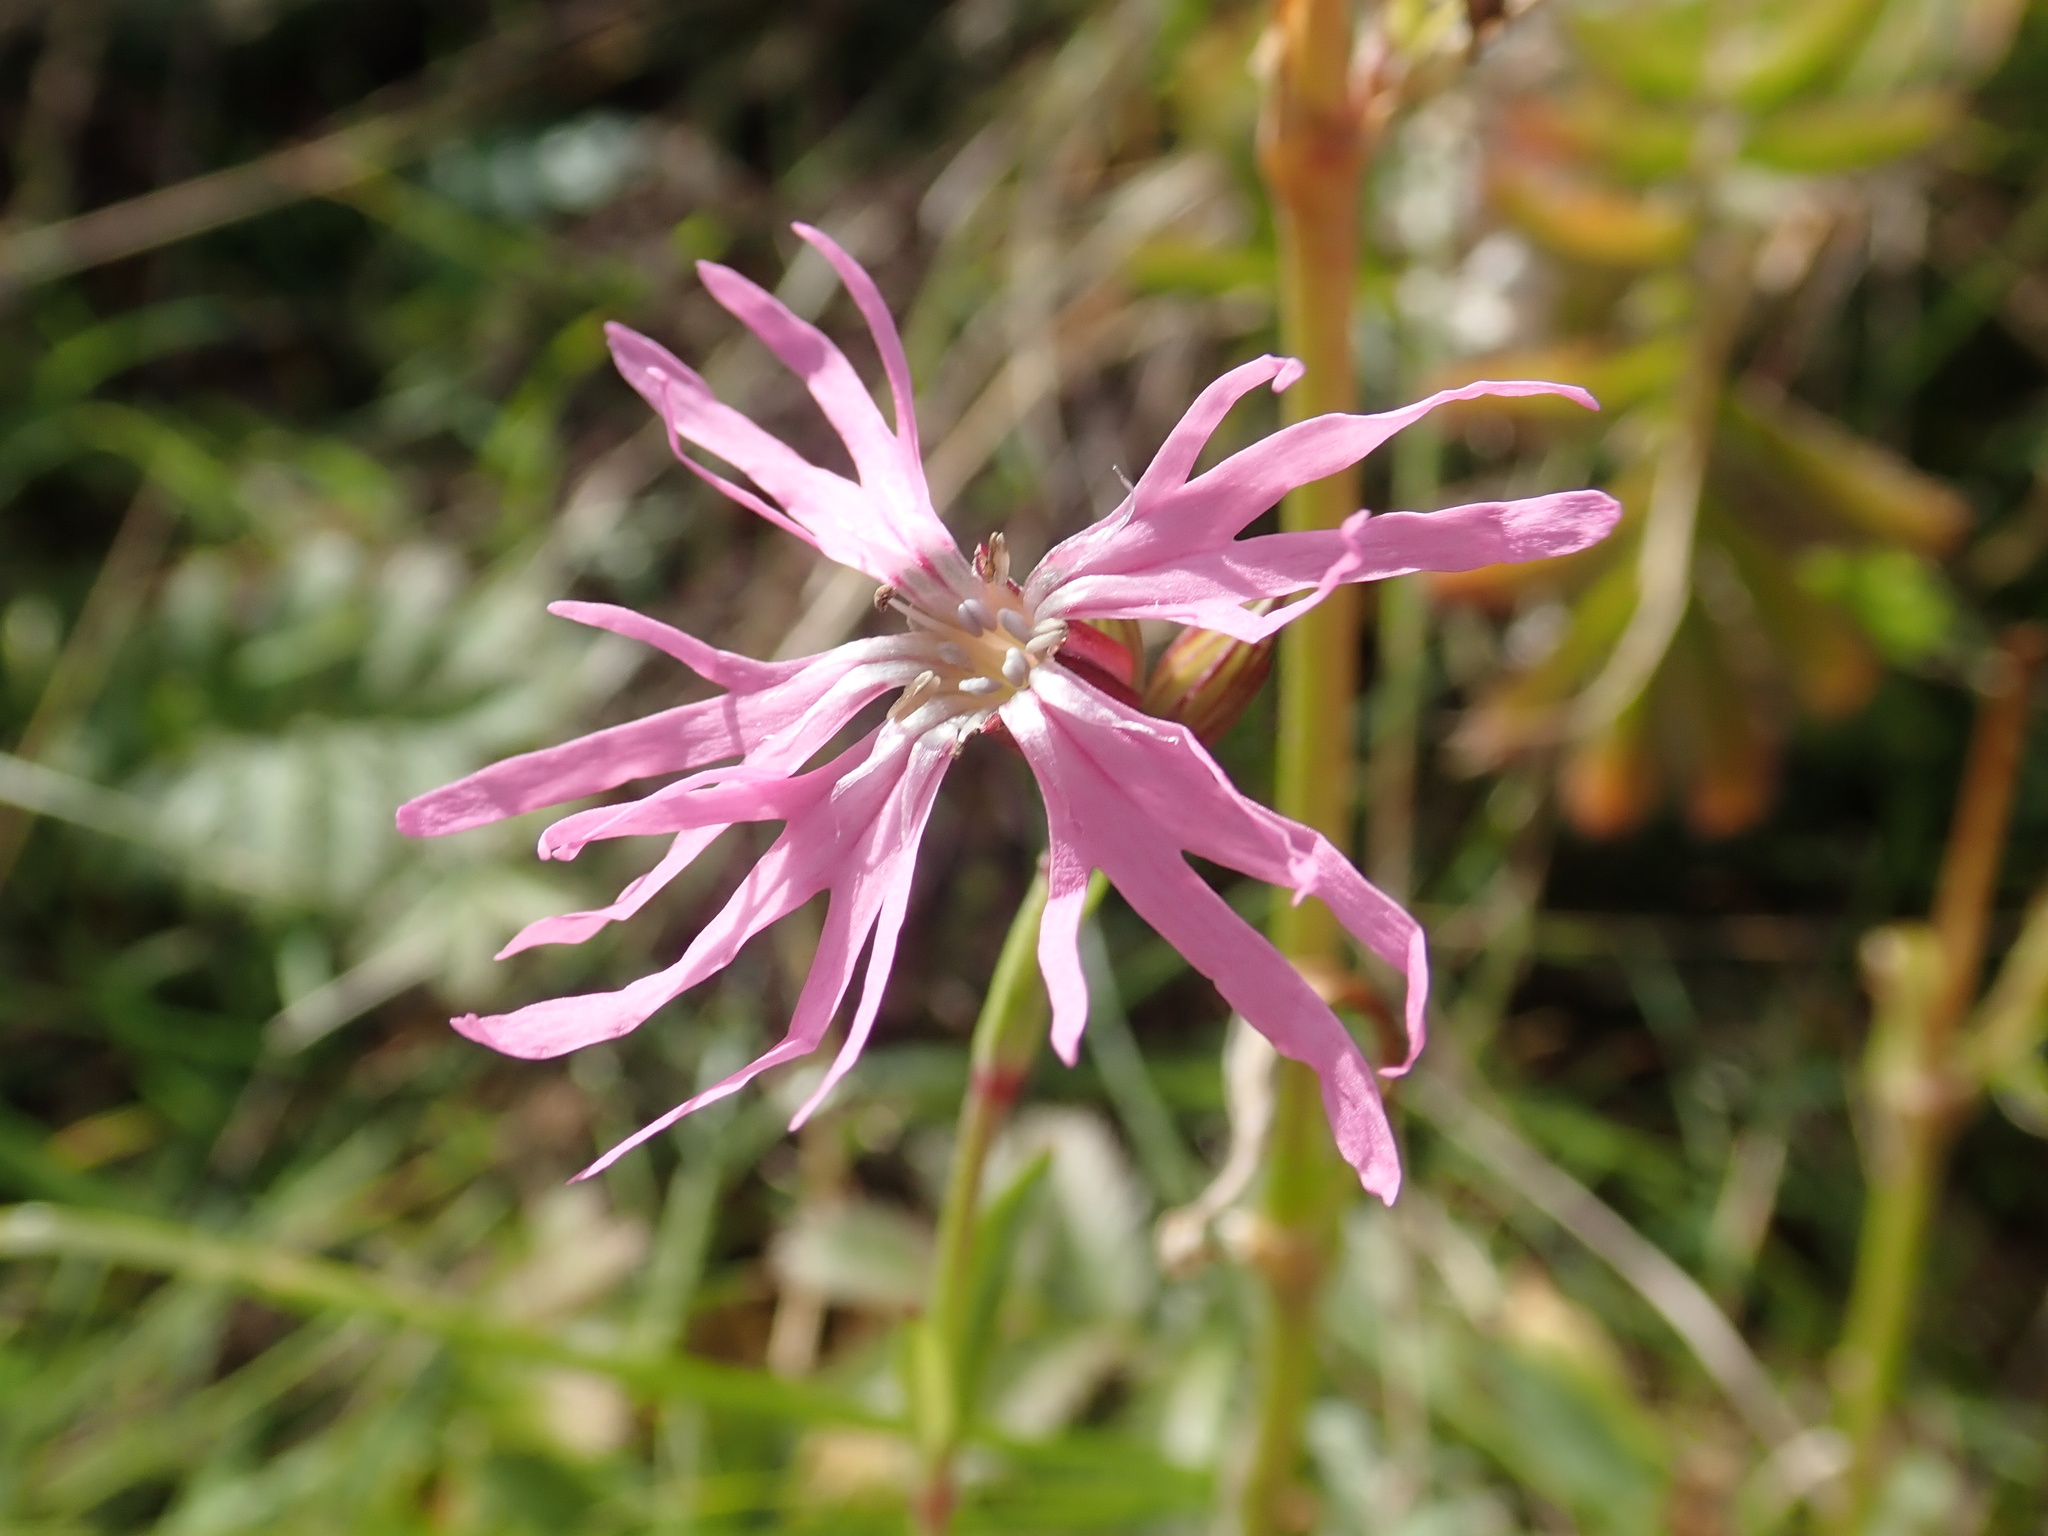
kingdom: Plantae
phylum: Tracheophyta
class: Magnoliopsida
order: Caryophyllales
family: Caryophyllaceae
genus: Silene
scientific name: Silene flos-cuculi
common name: Ragged-robin
